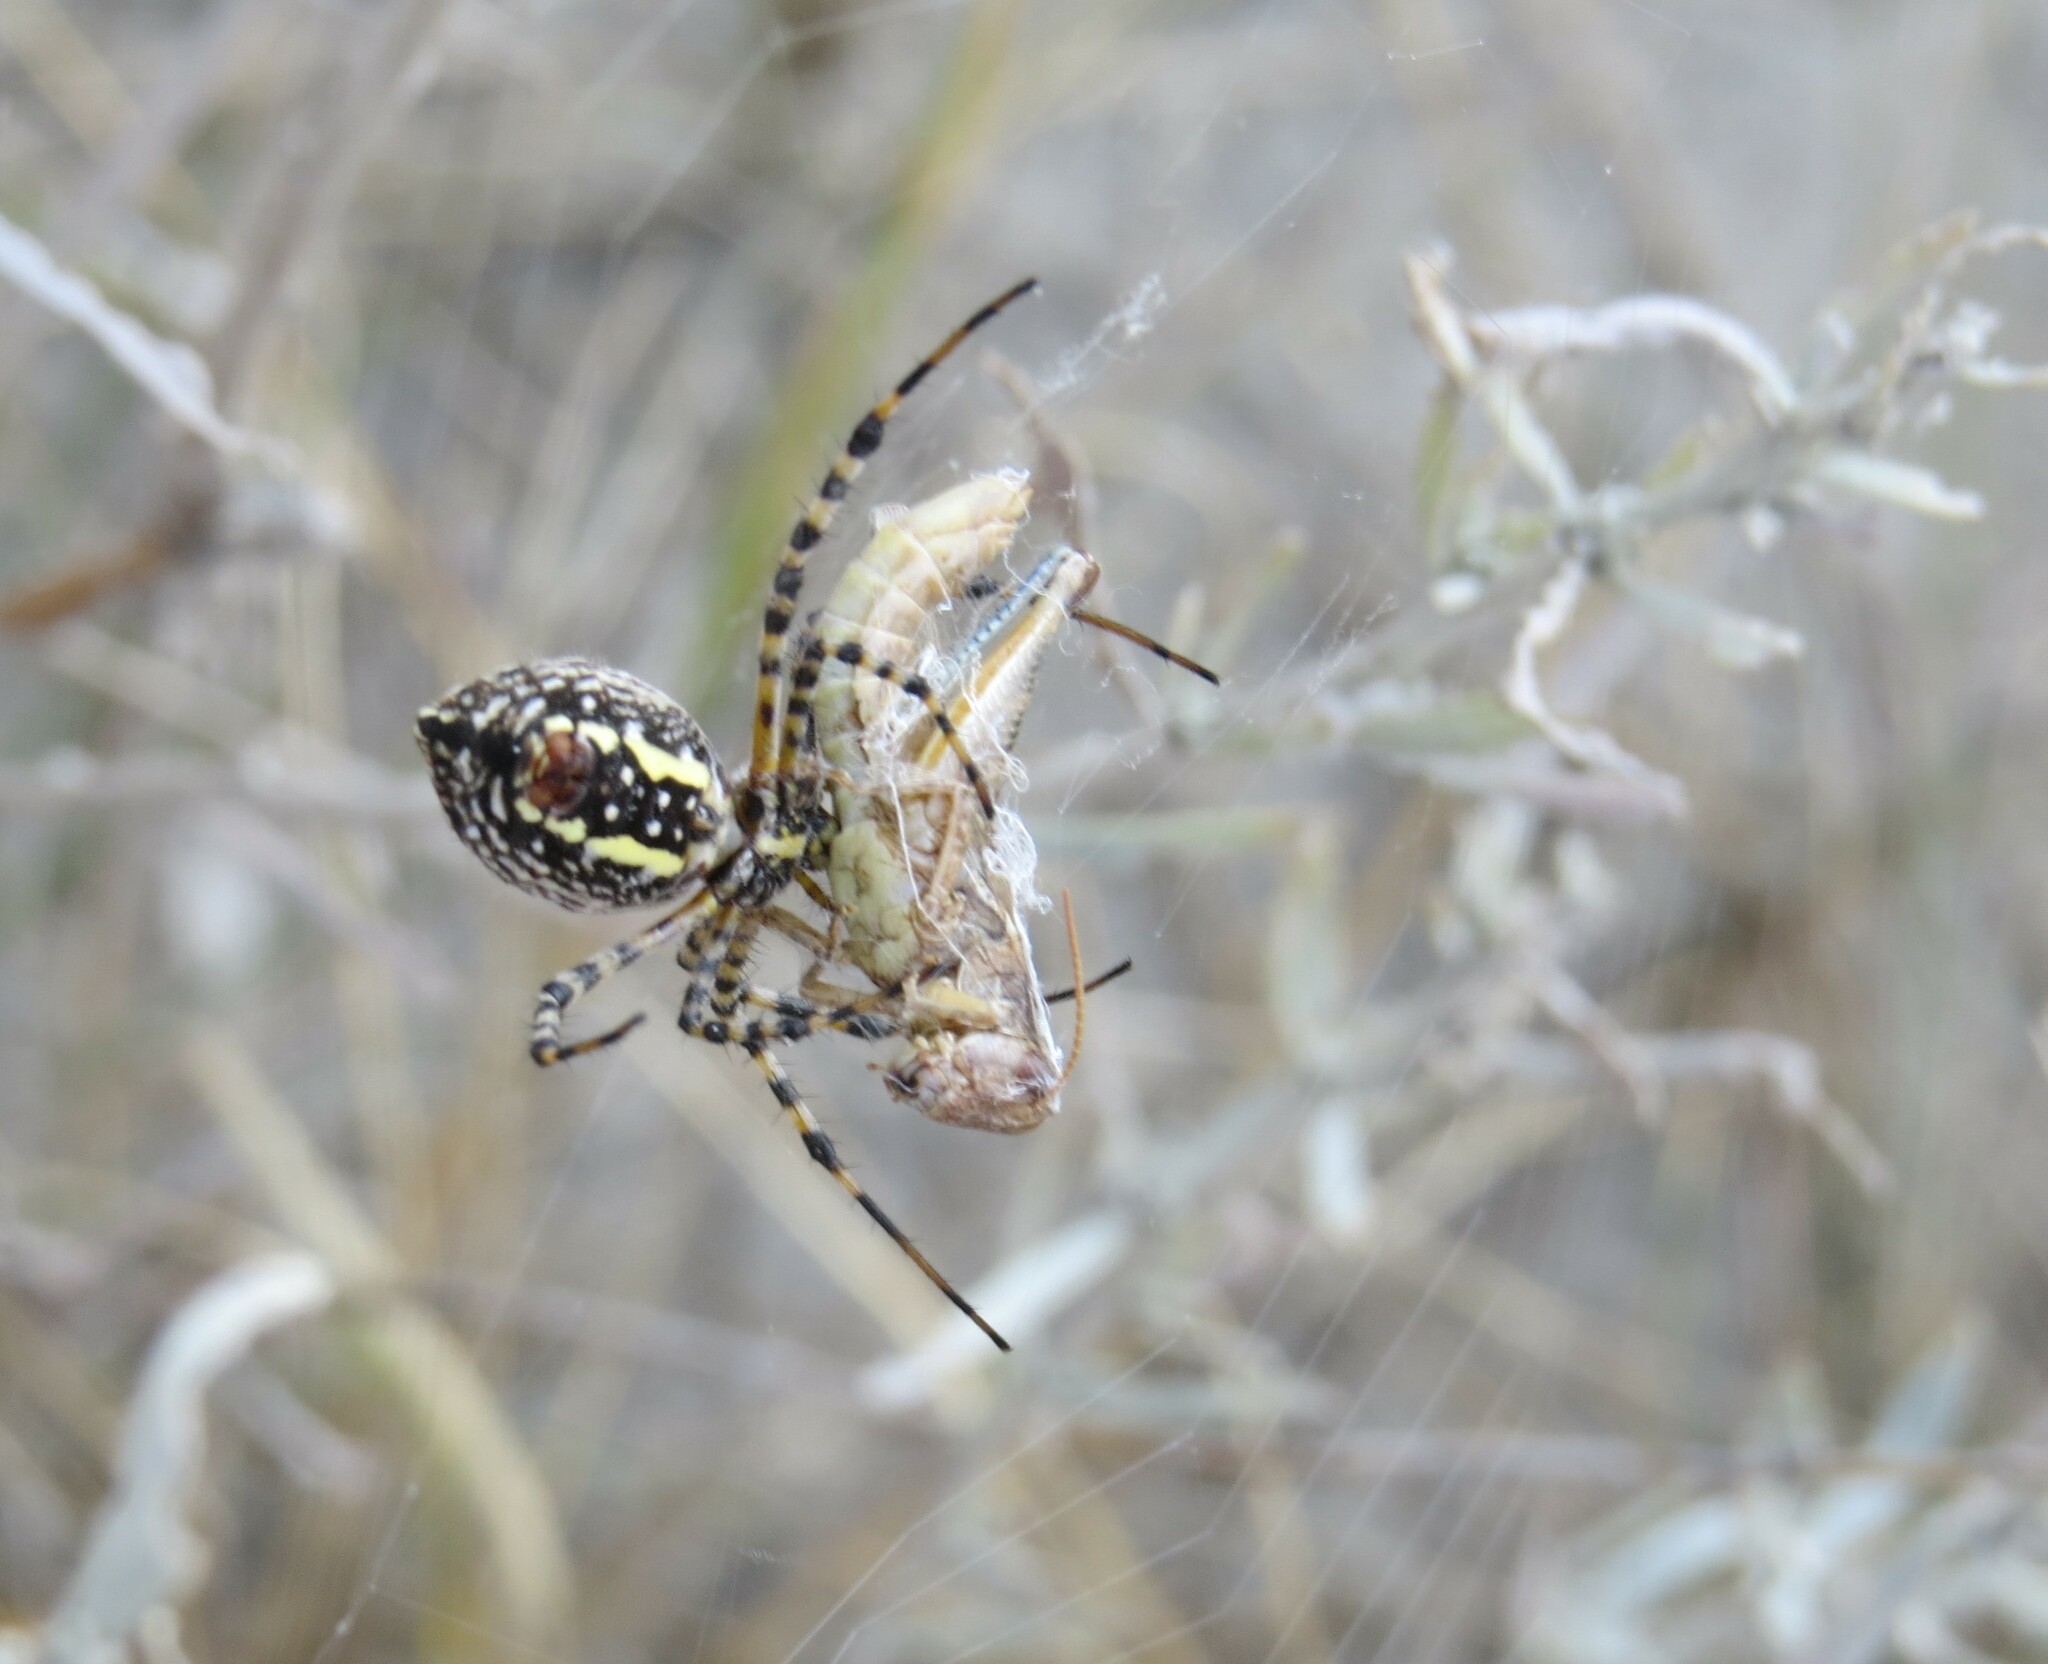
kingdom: Animalia
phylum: Arthropoda
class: Arachnida
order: Araneae
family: Araneidae
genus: Argiope
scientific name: Argiope trifasciata
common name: Banded garden spider
